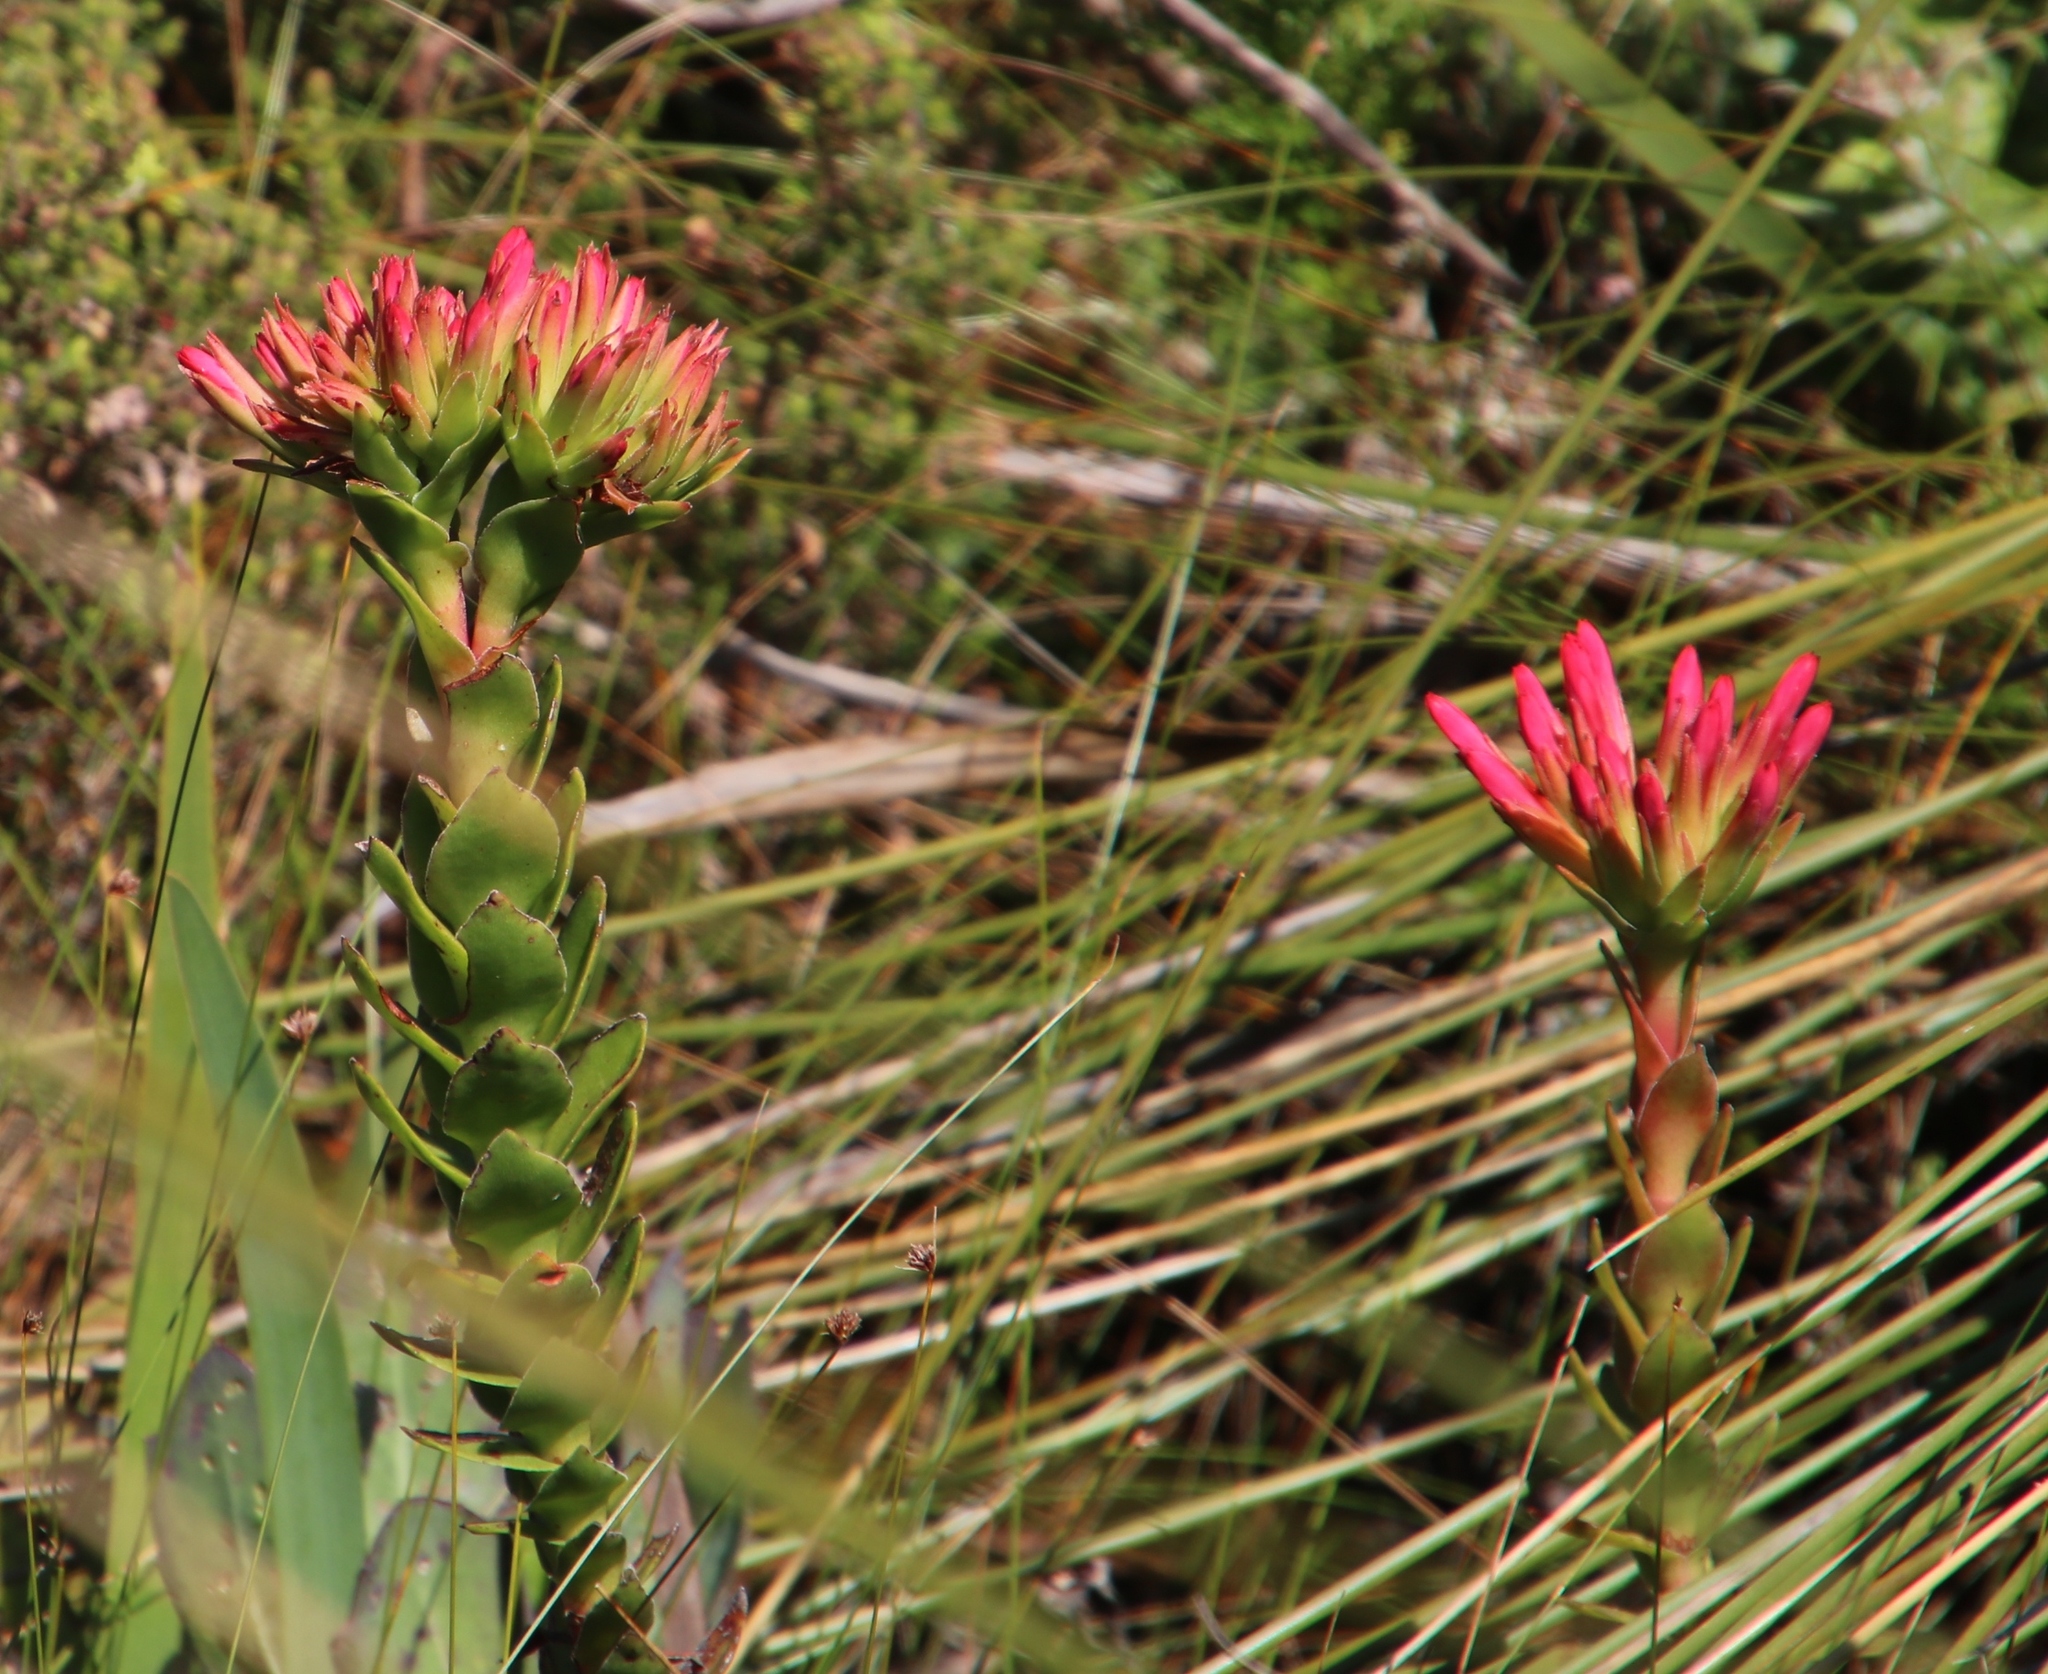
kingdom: Plantae
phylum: Tracheophyta
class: Magnoliopsida
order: Saxifragales
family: Crassulaceae
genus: Crassula
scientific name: Crassula coccinea
